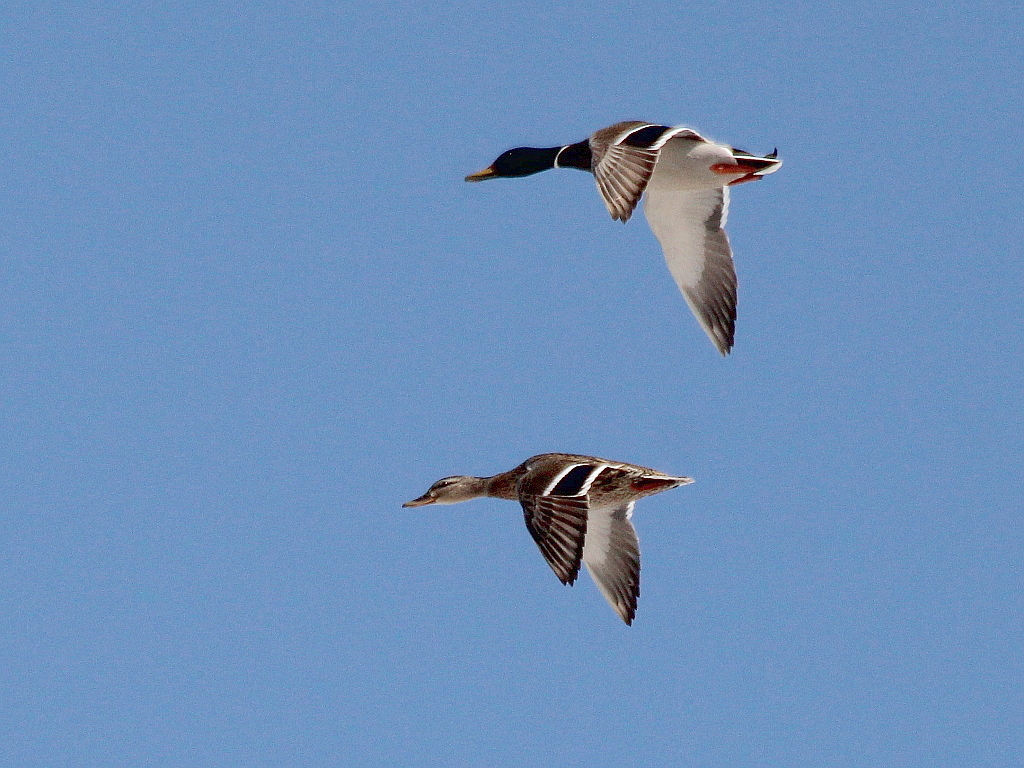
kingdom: Animalia
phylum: Chordata
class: Aves
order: Anseriformes
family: Anatidae
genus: Anas
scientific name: Anas platyrhynchos
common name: Mallard
